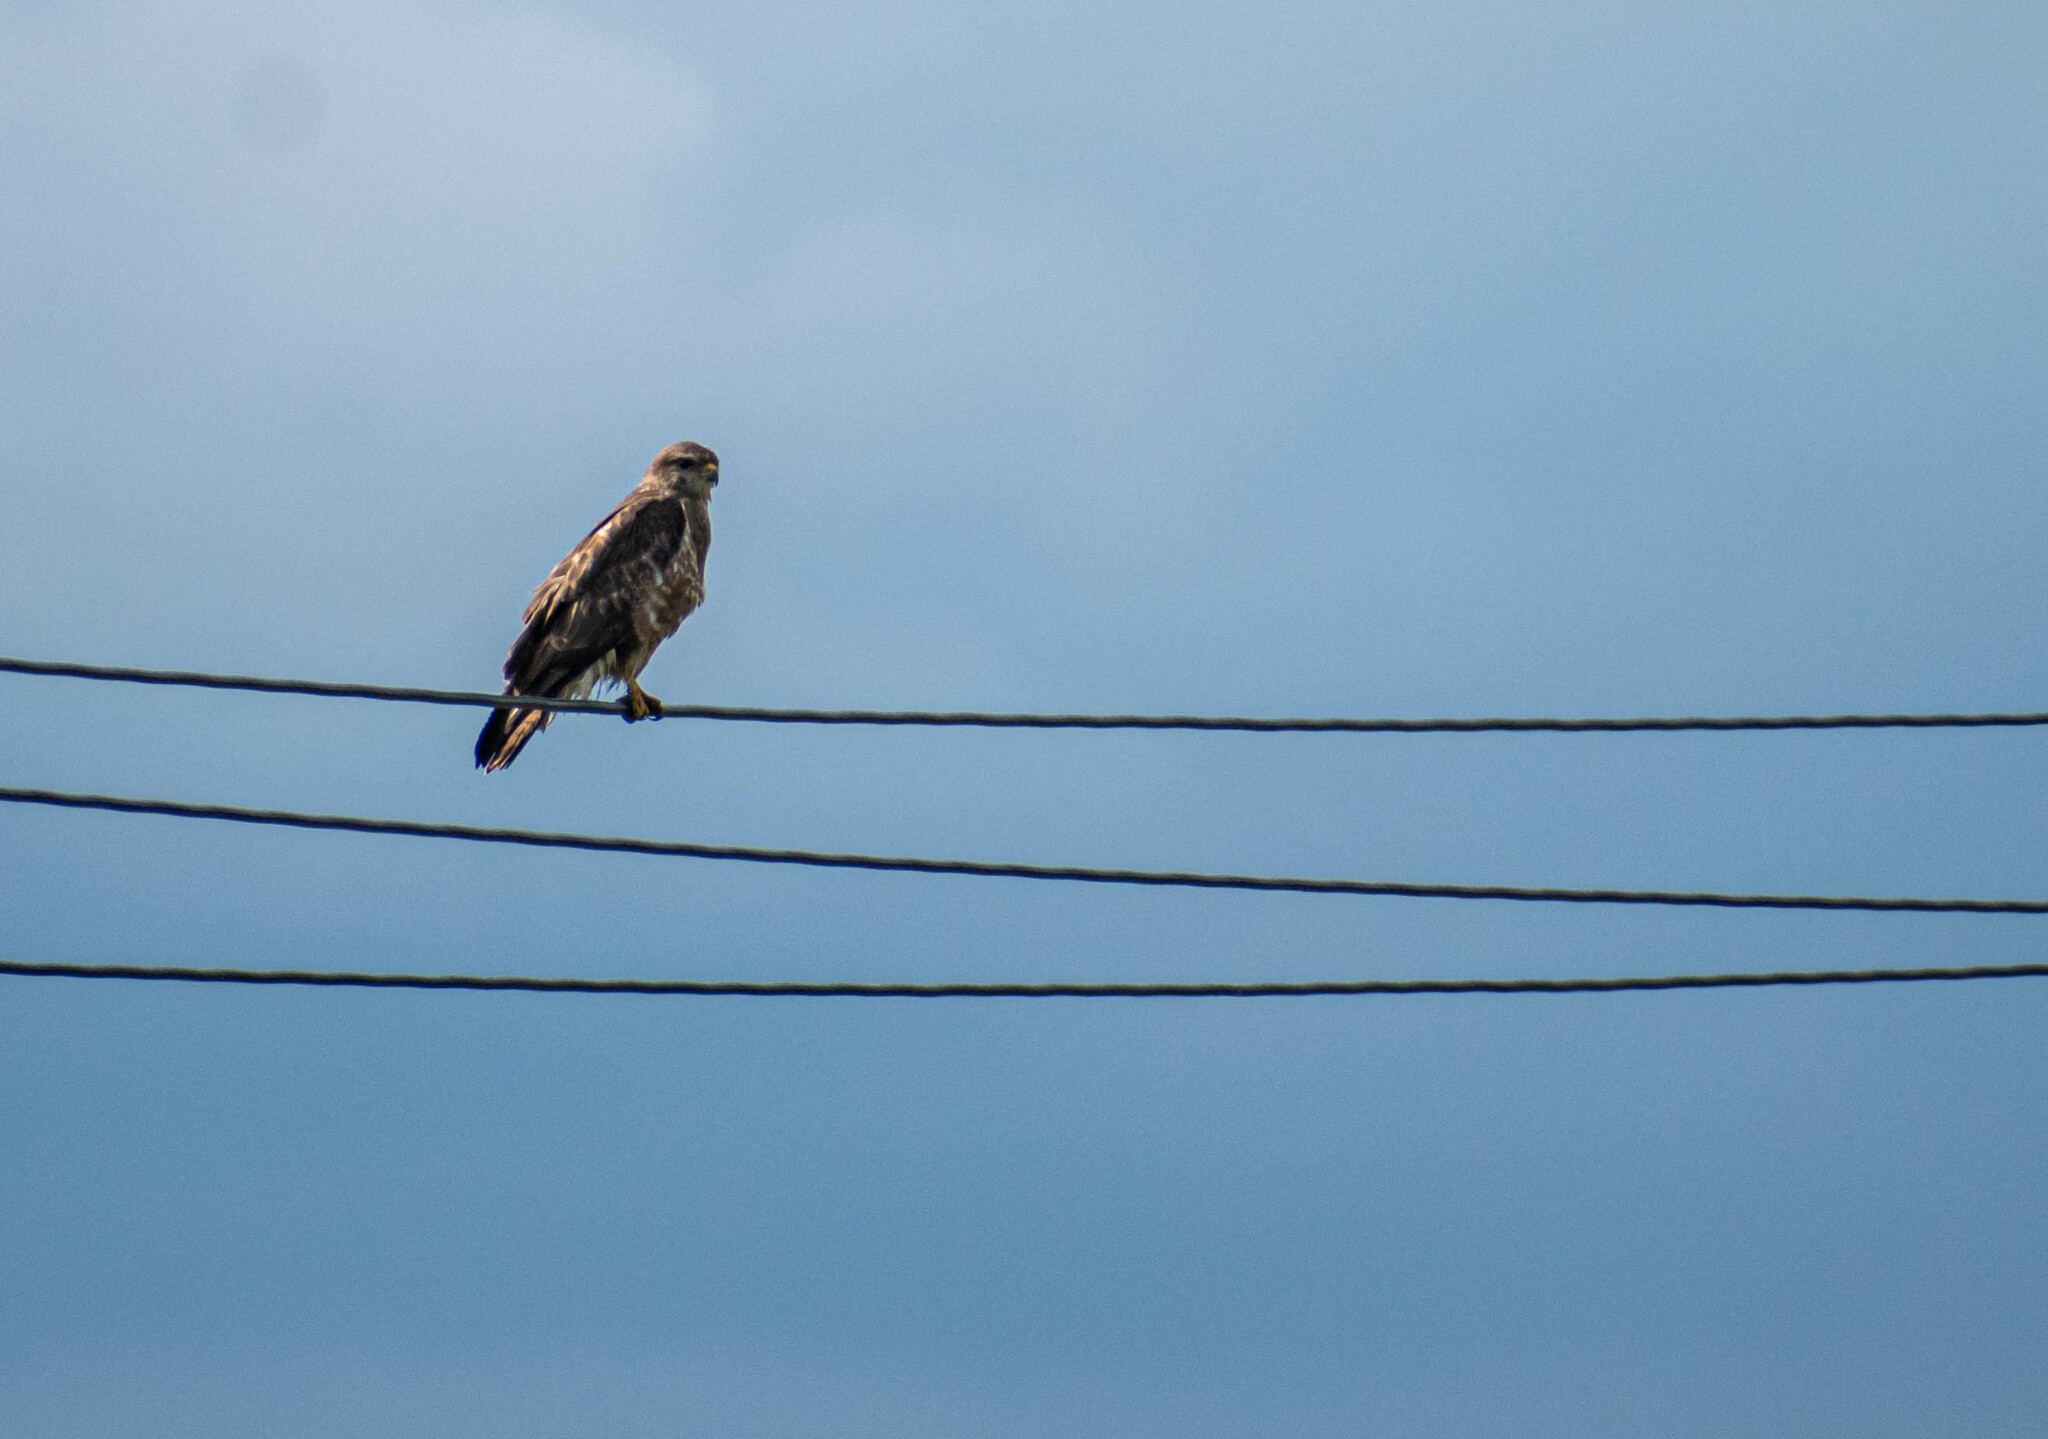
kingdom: Animalia
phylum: Chordata
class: Aves
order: Accipitriformes
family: Accipitridae
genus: Buteo
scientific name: Buteo buteo
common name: Common buzzard
